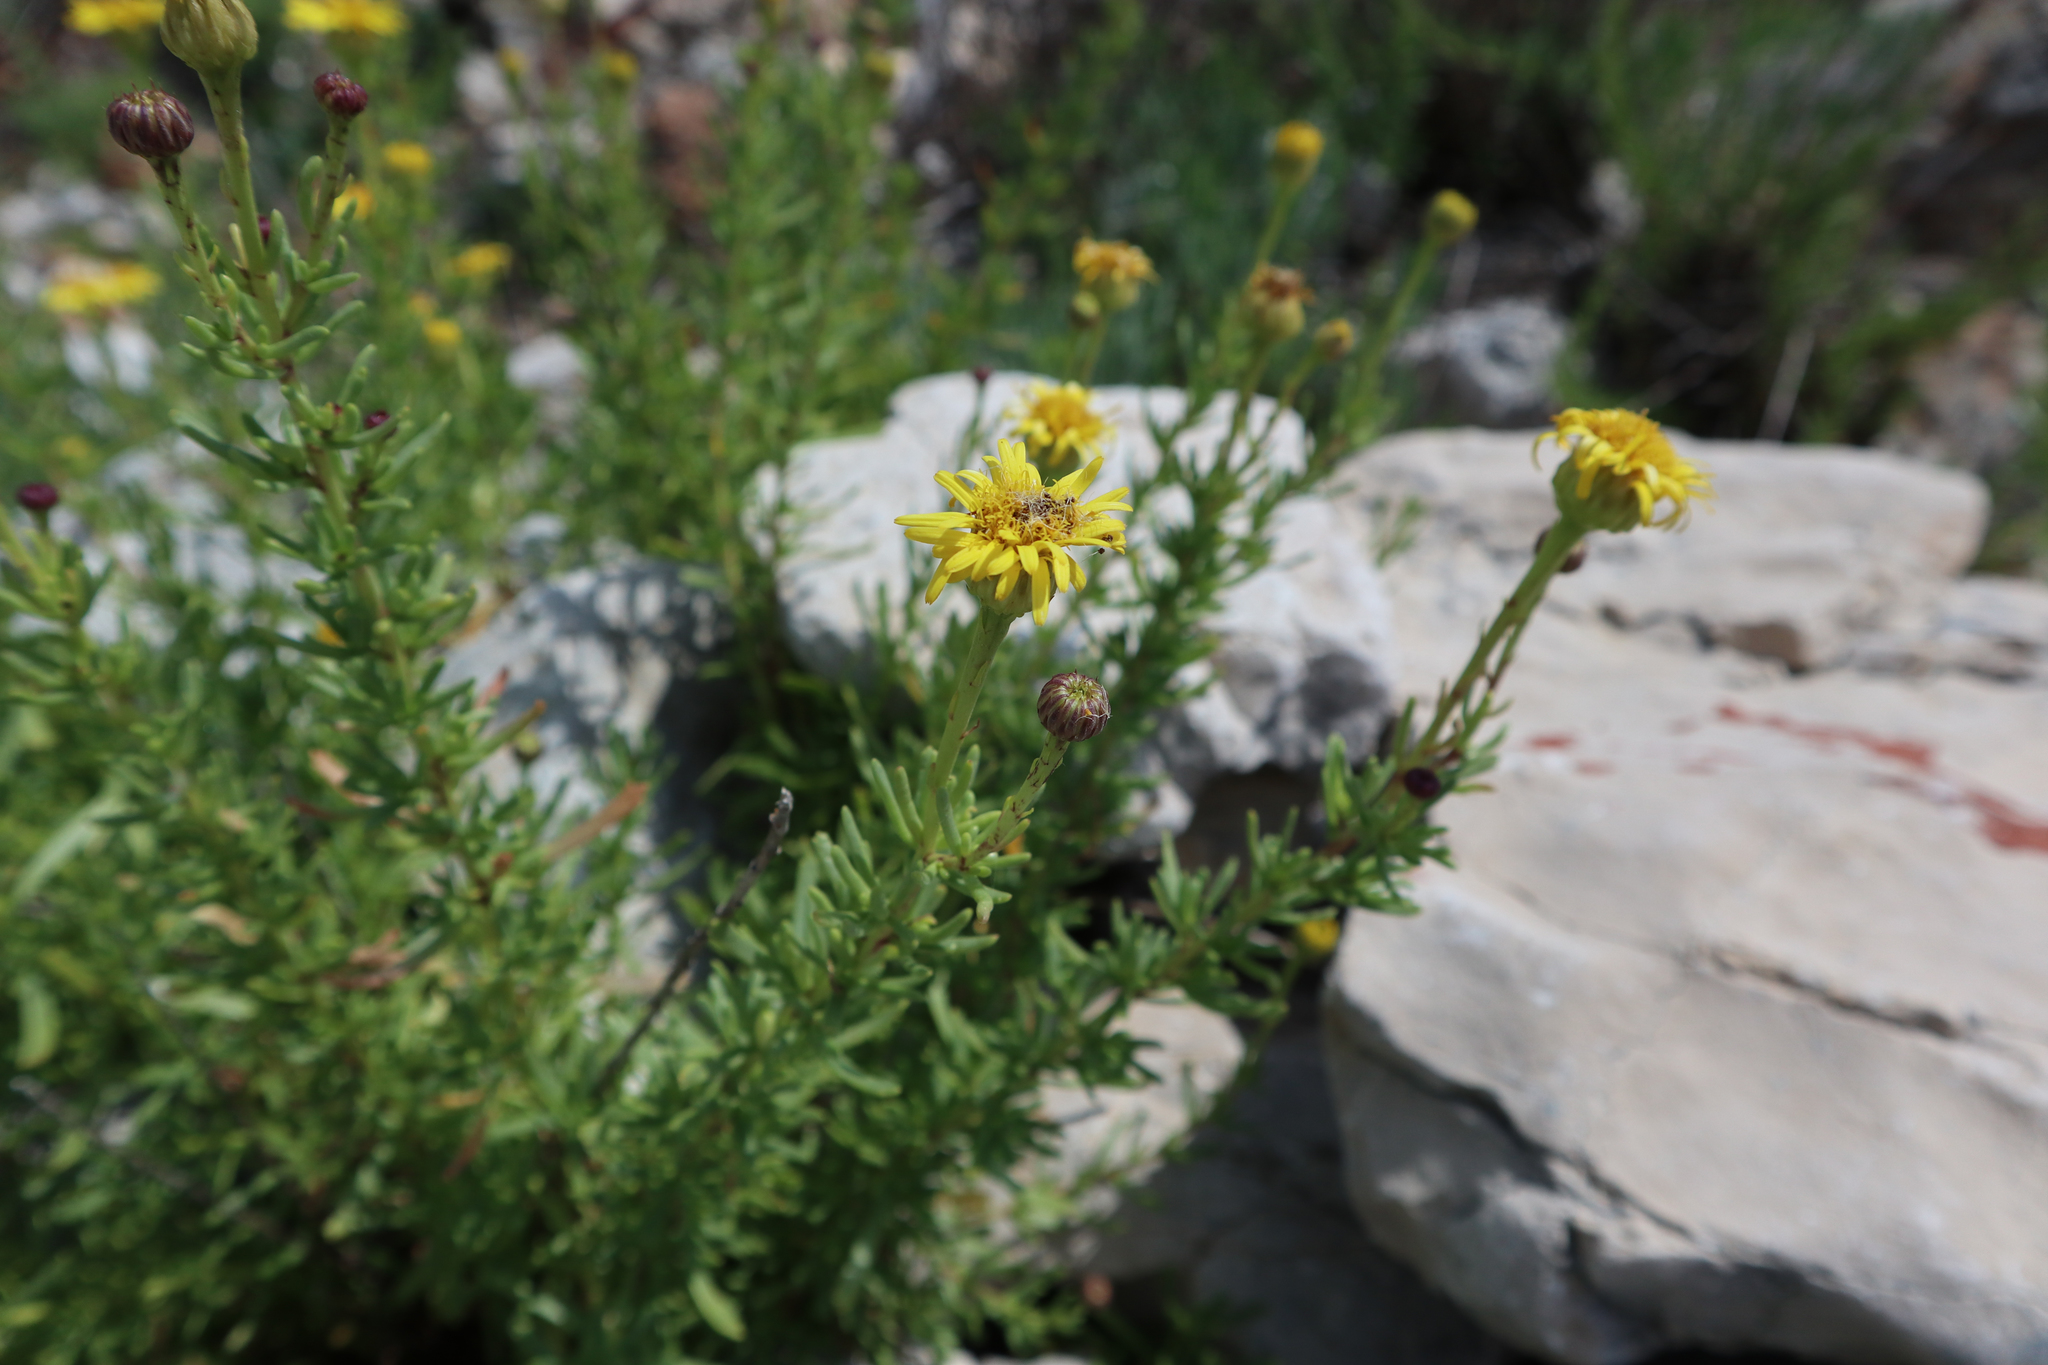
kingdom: Plantae
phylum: Tracheophyta
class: Magnoliopsida
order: Asterales
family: Asteraceae
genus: Limbarda
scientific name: Limbarda crithmoides
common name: Golden samphire
